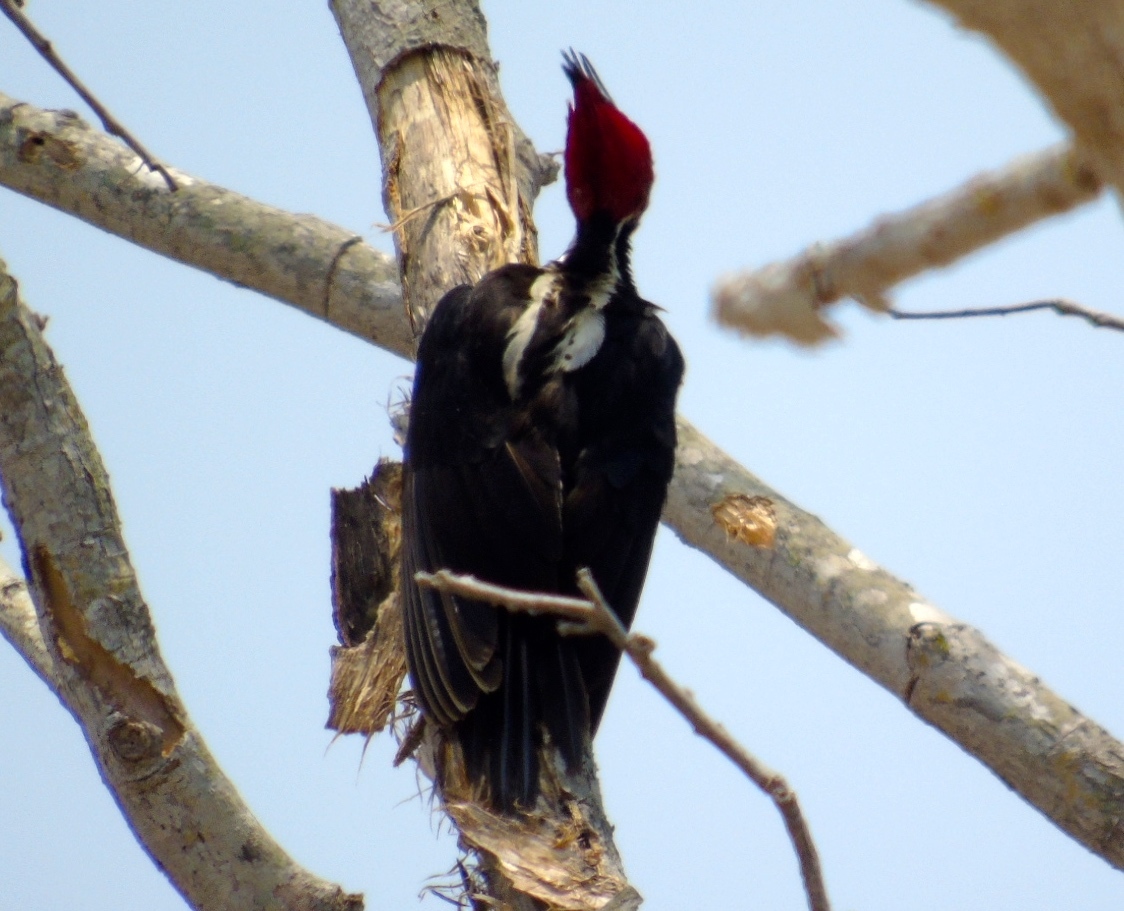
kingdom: Animalia
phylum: Chordata
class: Aves
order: Piciformes
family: Picidae
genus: Dryocopus
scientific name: Dryocopus lineatus
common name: Lineated woodpecker
